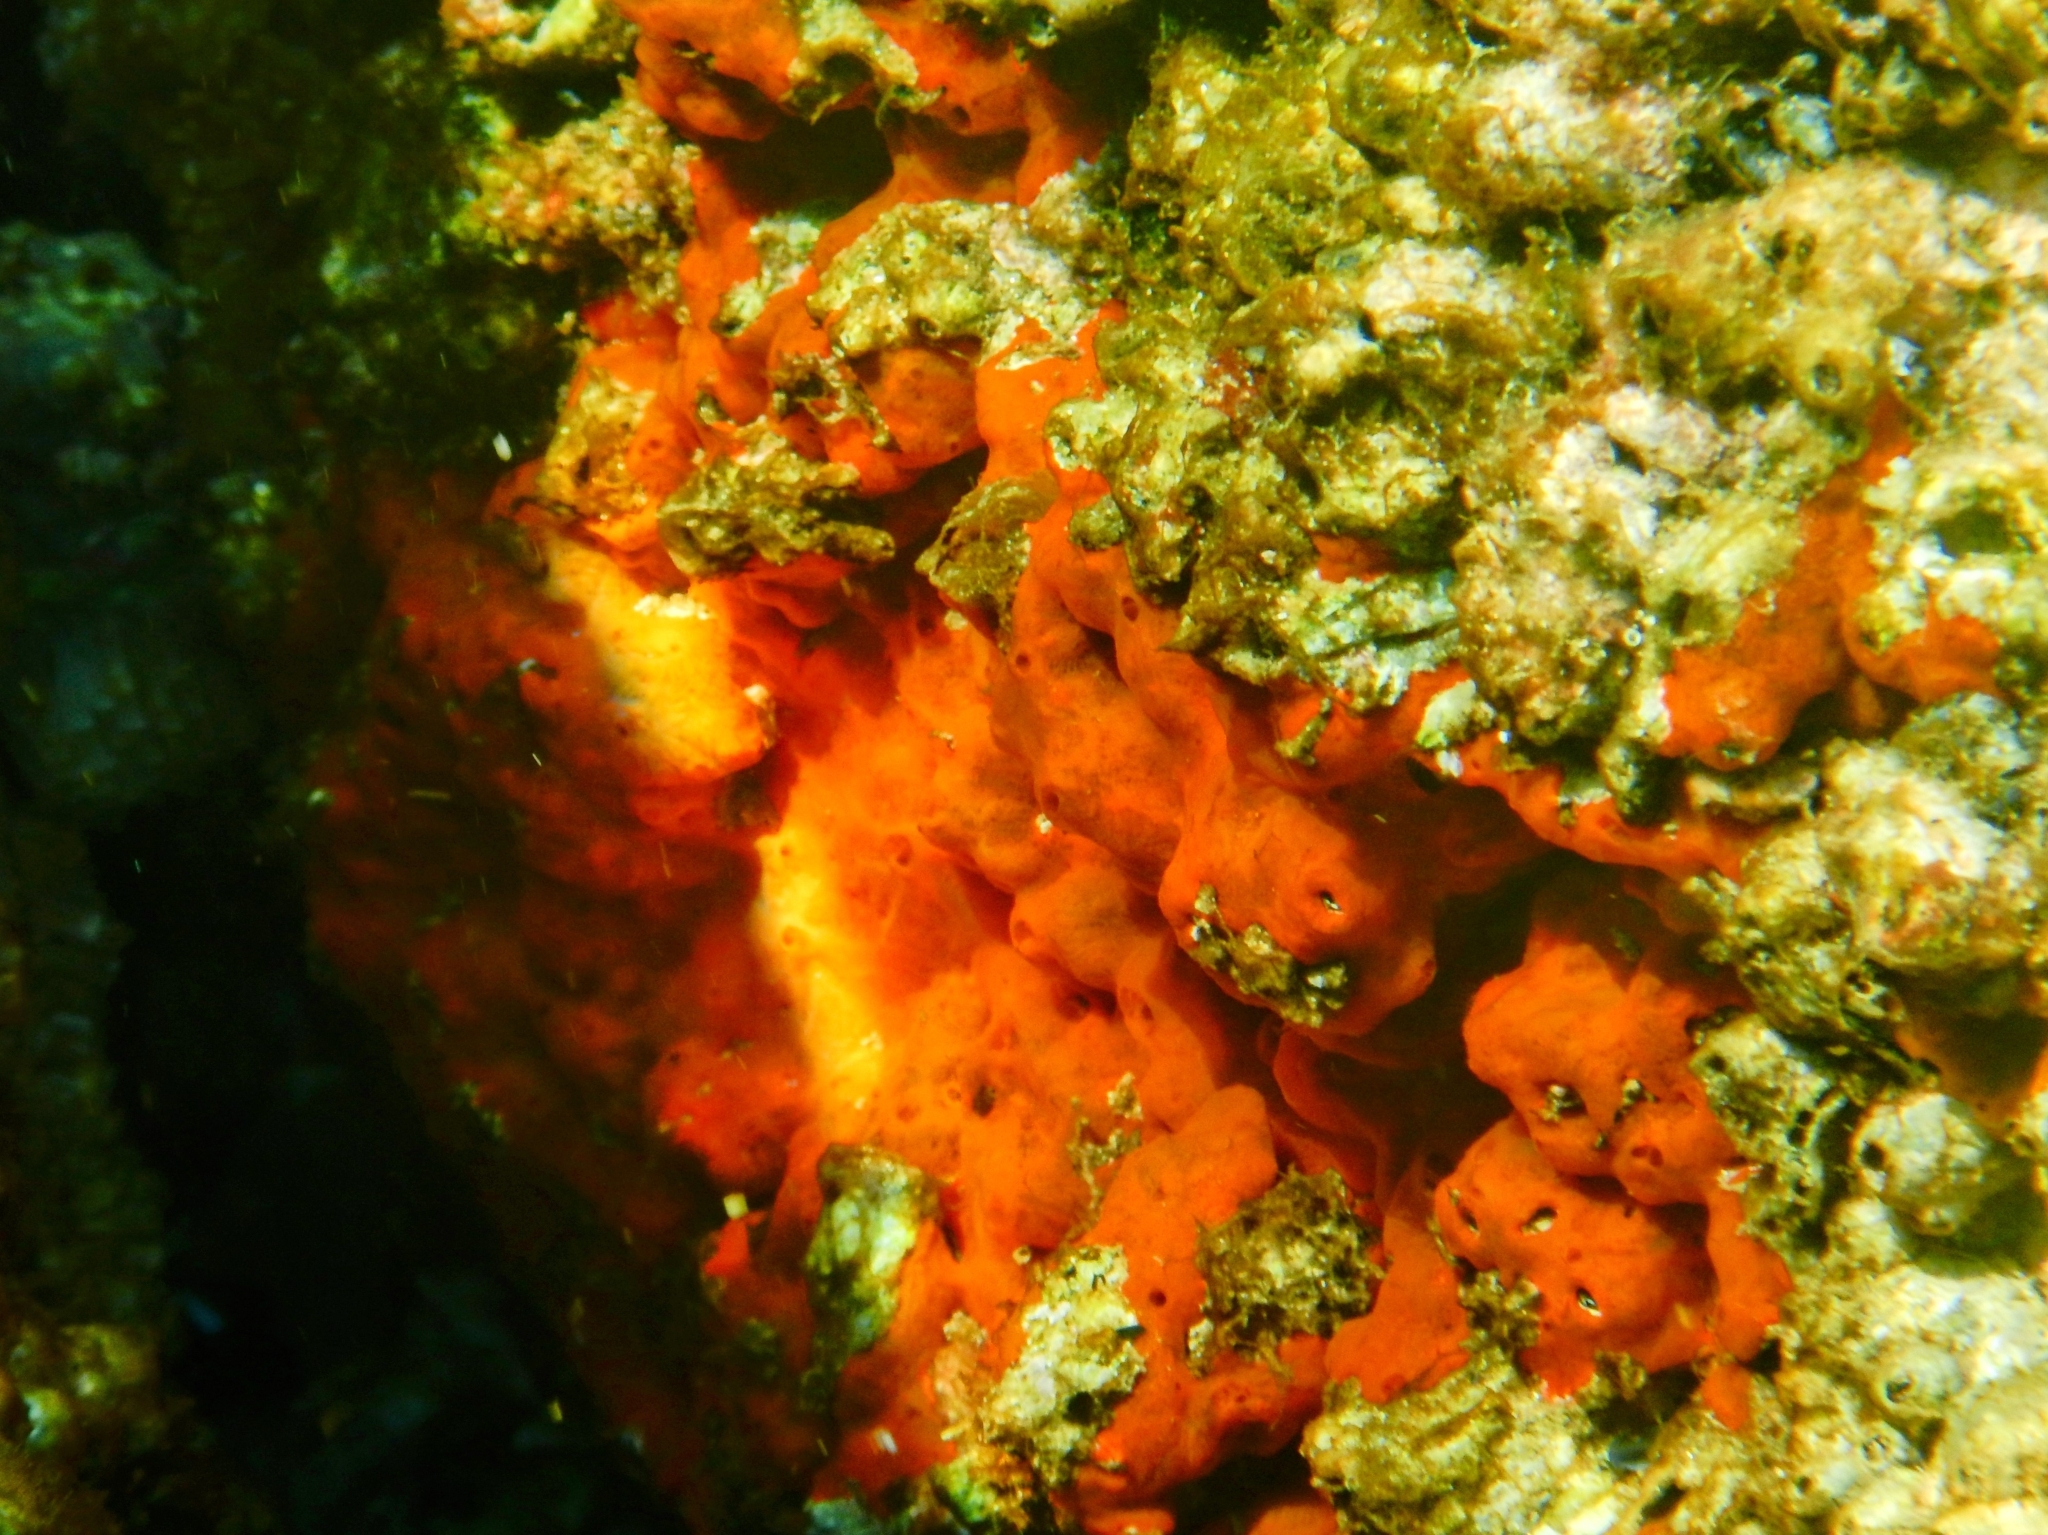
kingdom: Animalia
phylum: Porifera
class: Demospongiae
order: Poecilosclerida
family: Crambeidae
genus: Crambe
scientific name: Crambe crambe
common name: Orange-red encrusting sponge
